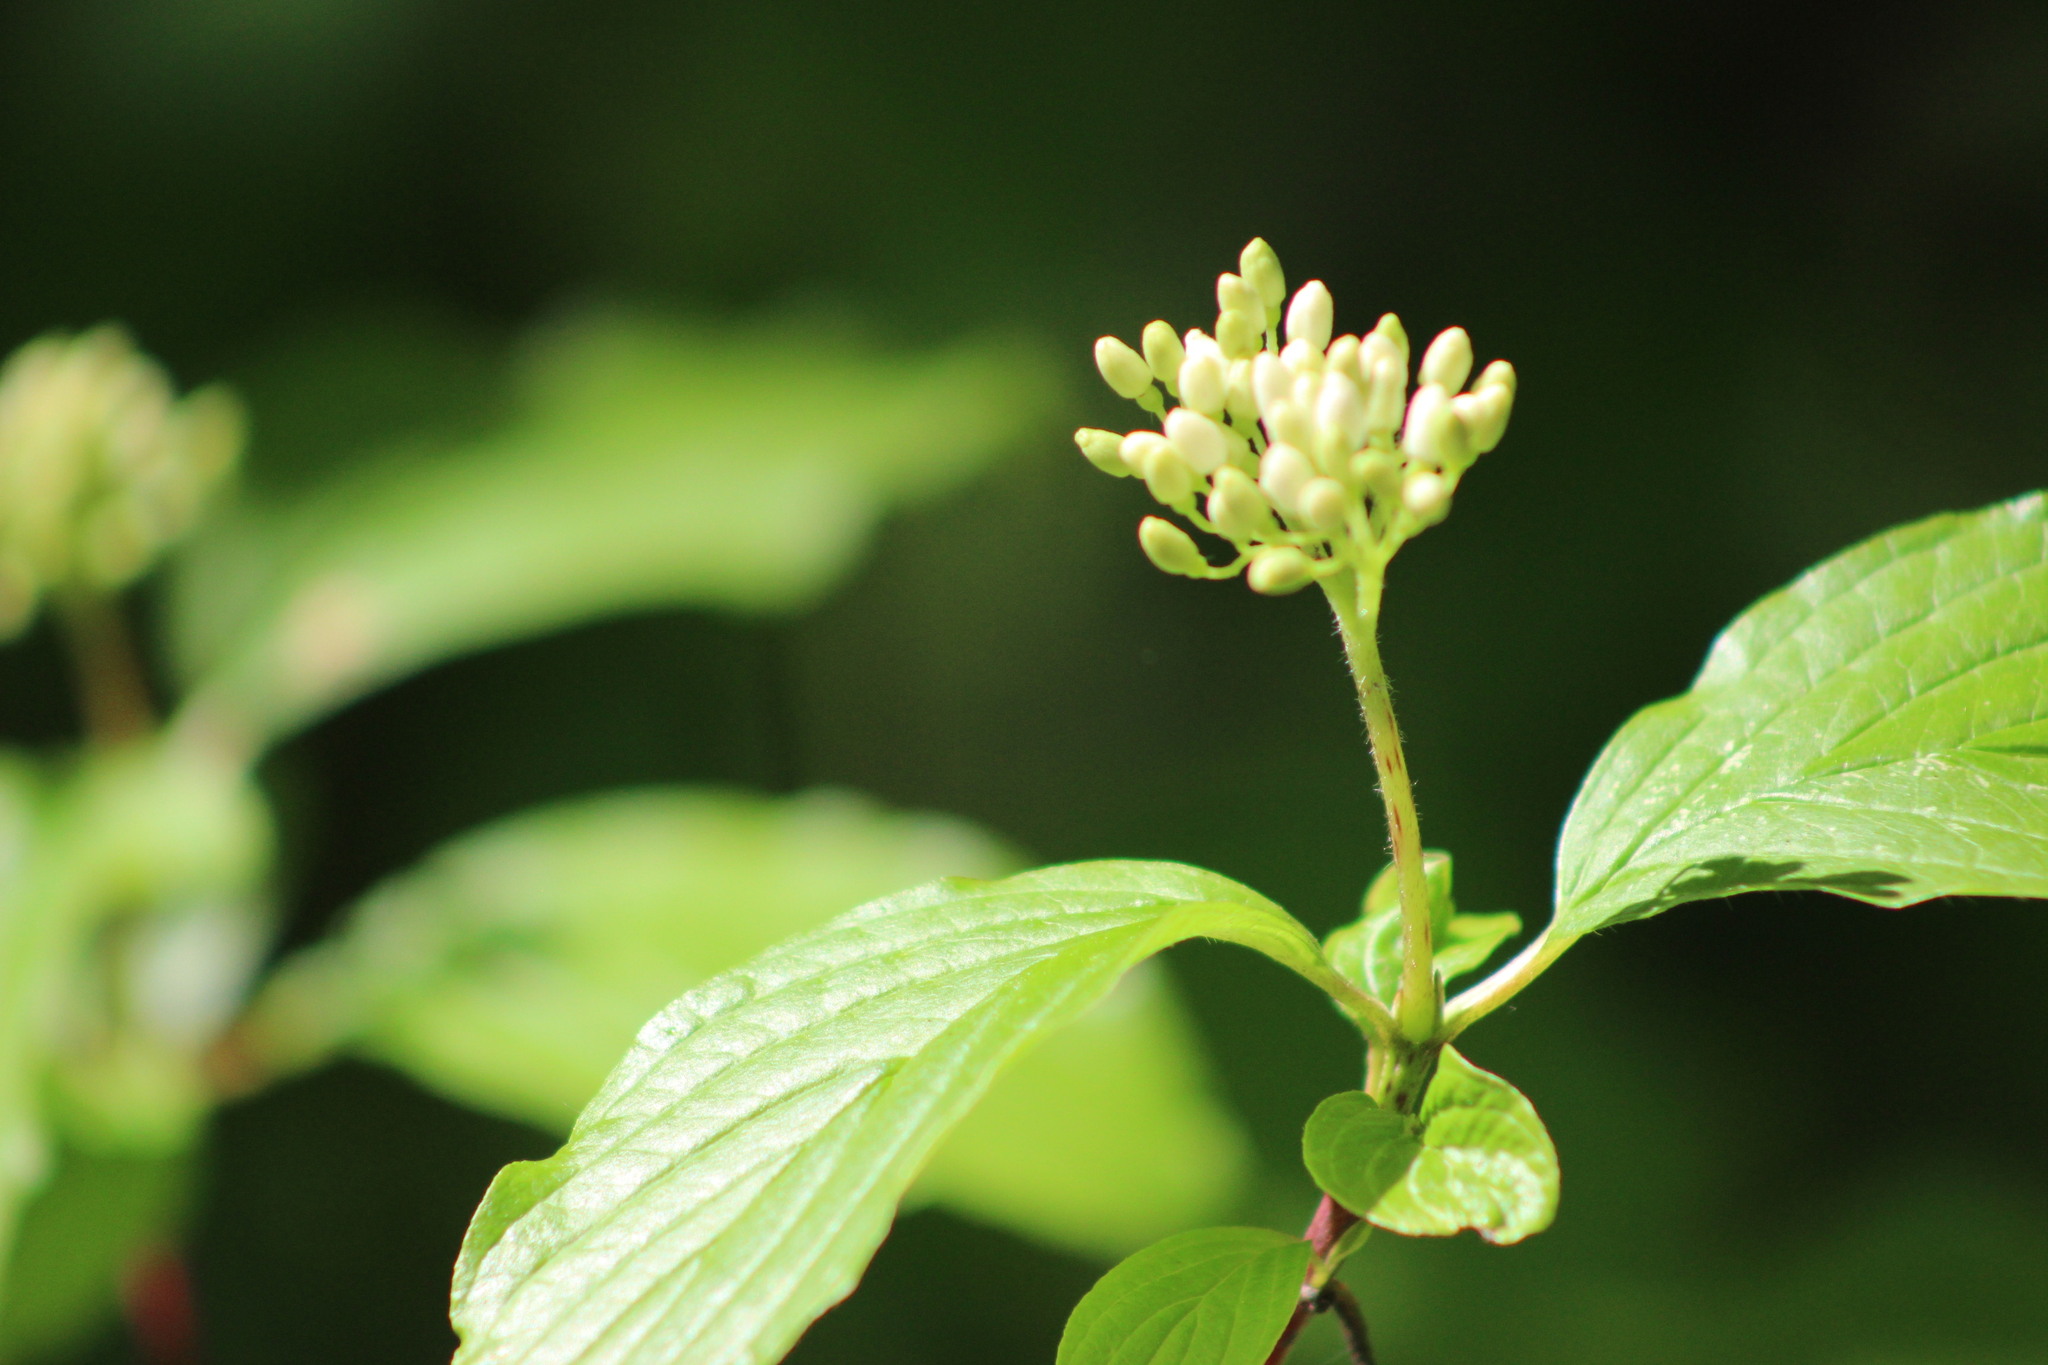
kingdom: Plantae
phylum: Tracheophyta
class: Magnoliopsida
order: Cornales
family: Cornaceae
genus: Cornus
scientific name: Cornus alba
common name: White dogwood
